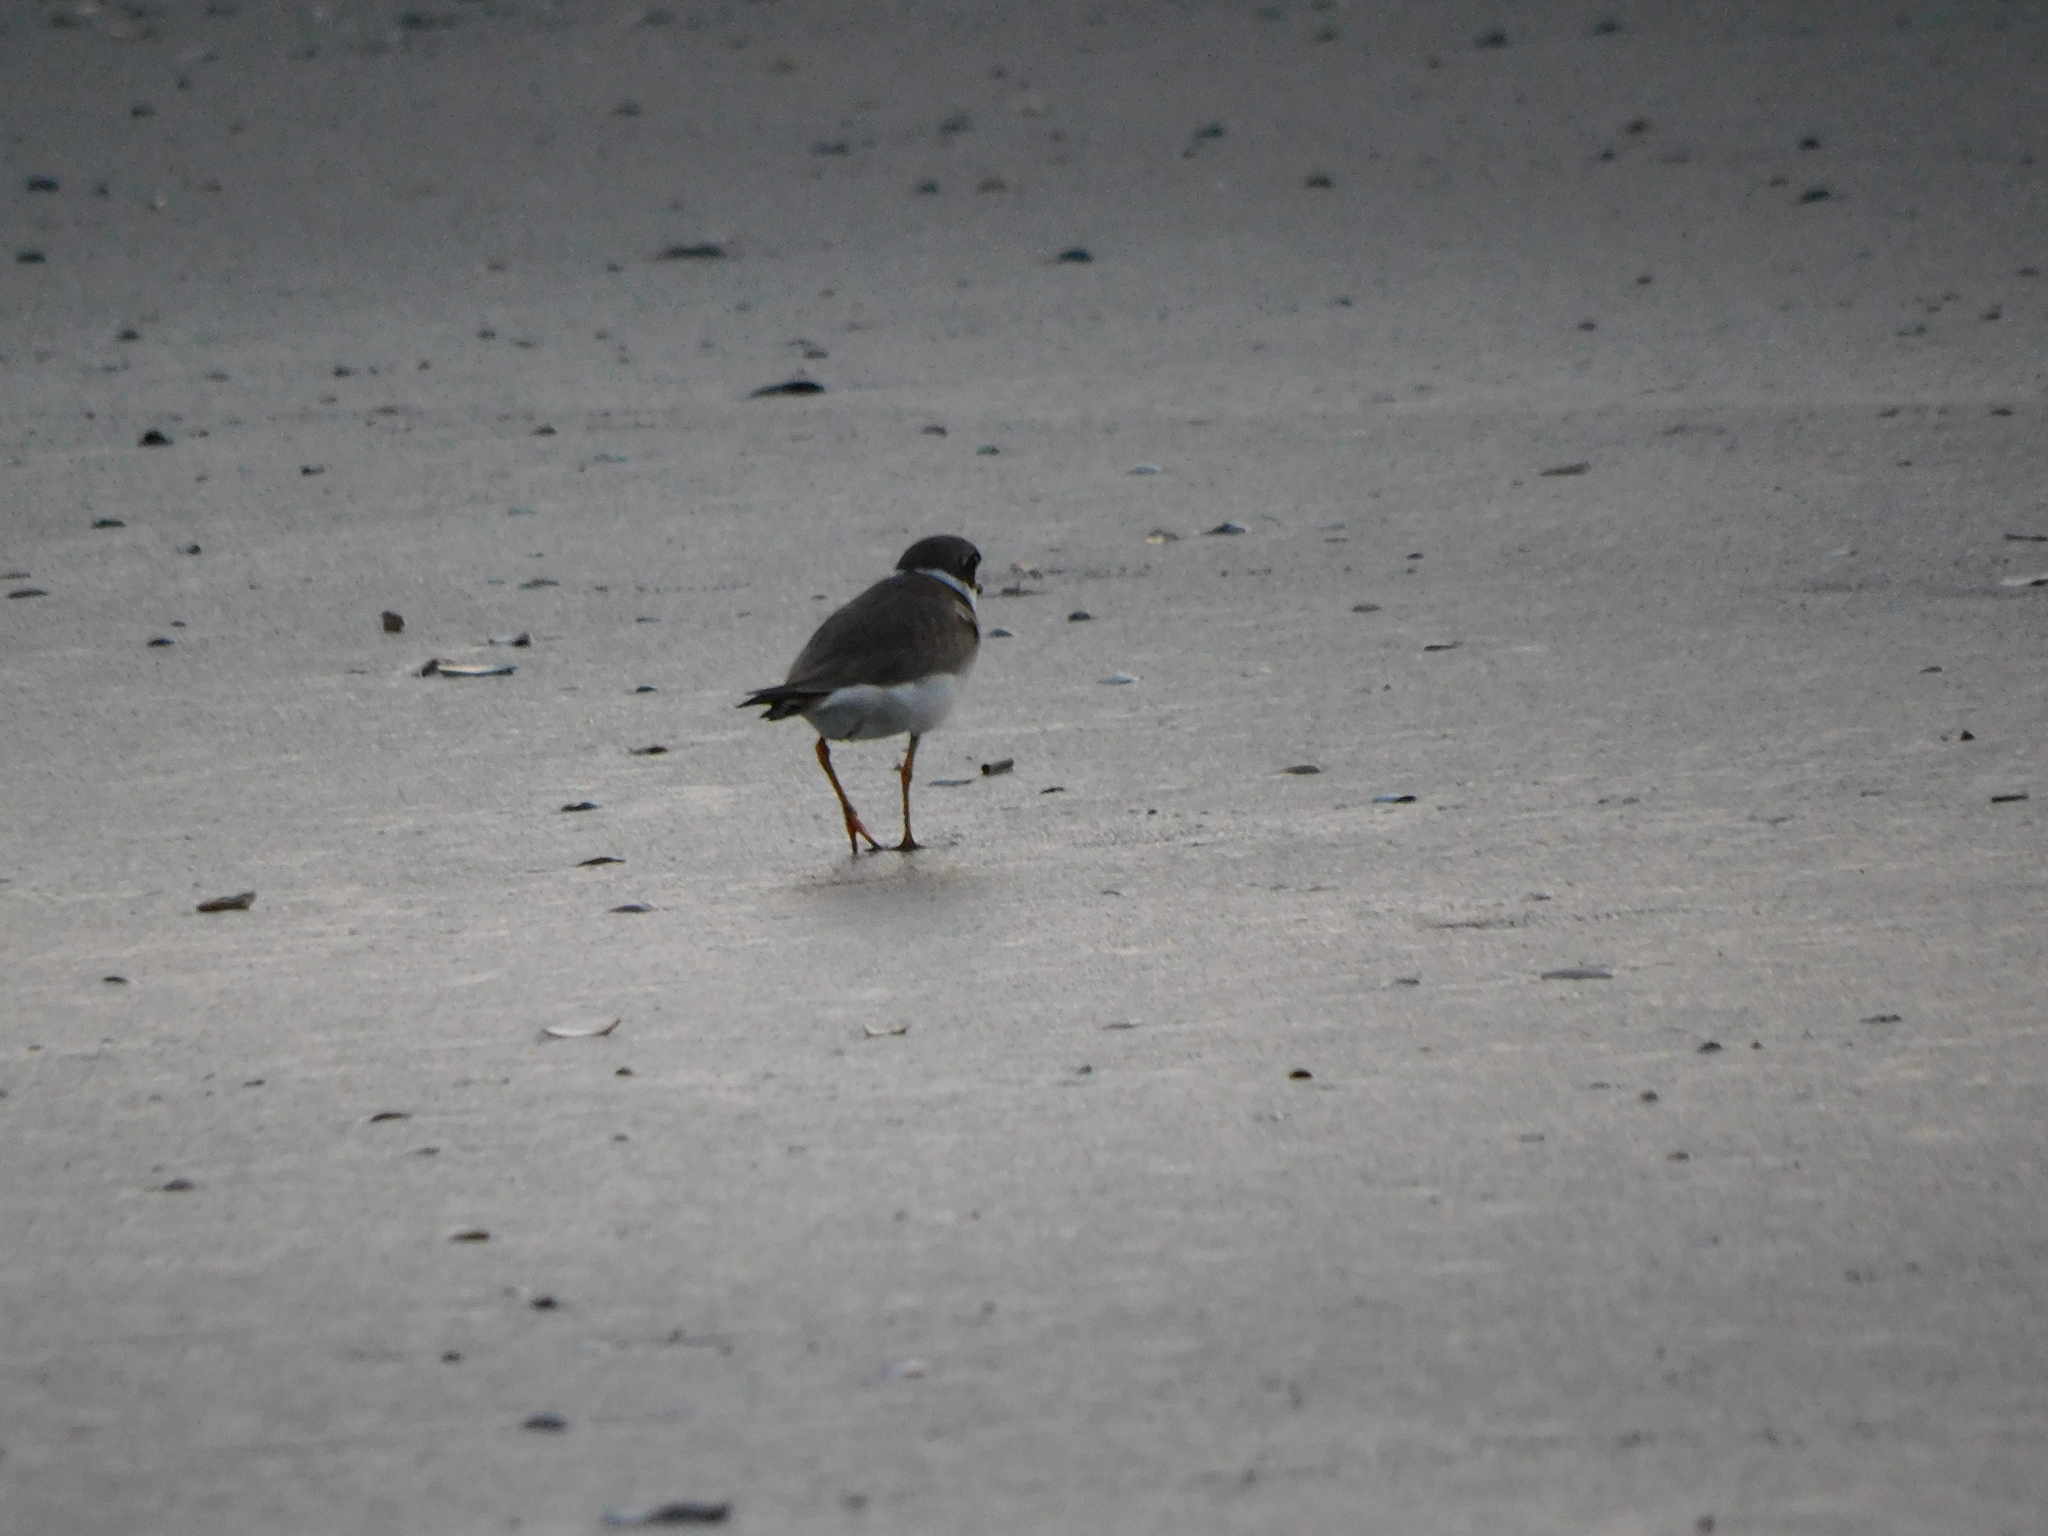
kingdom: Animalia
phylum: Chordata
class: Aves
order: Charadriiformes
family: Charadriidae
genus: Charadrius
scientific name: Charadrius semipalmatus
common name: Semipalmated plover
